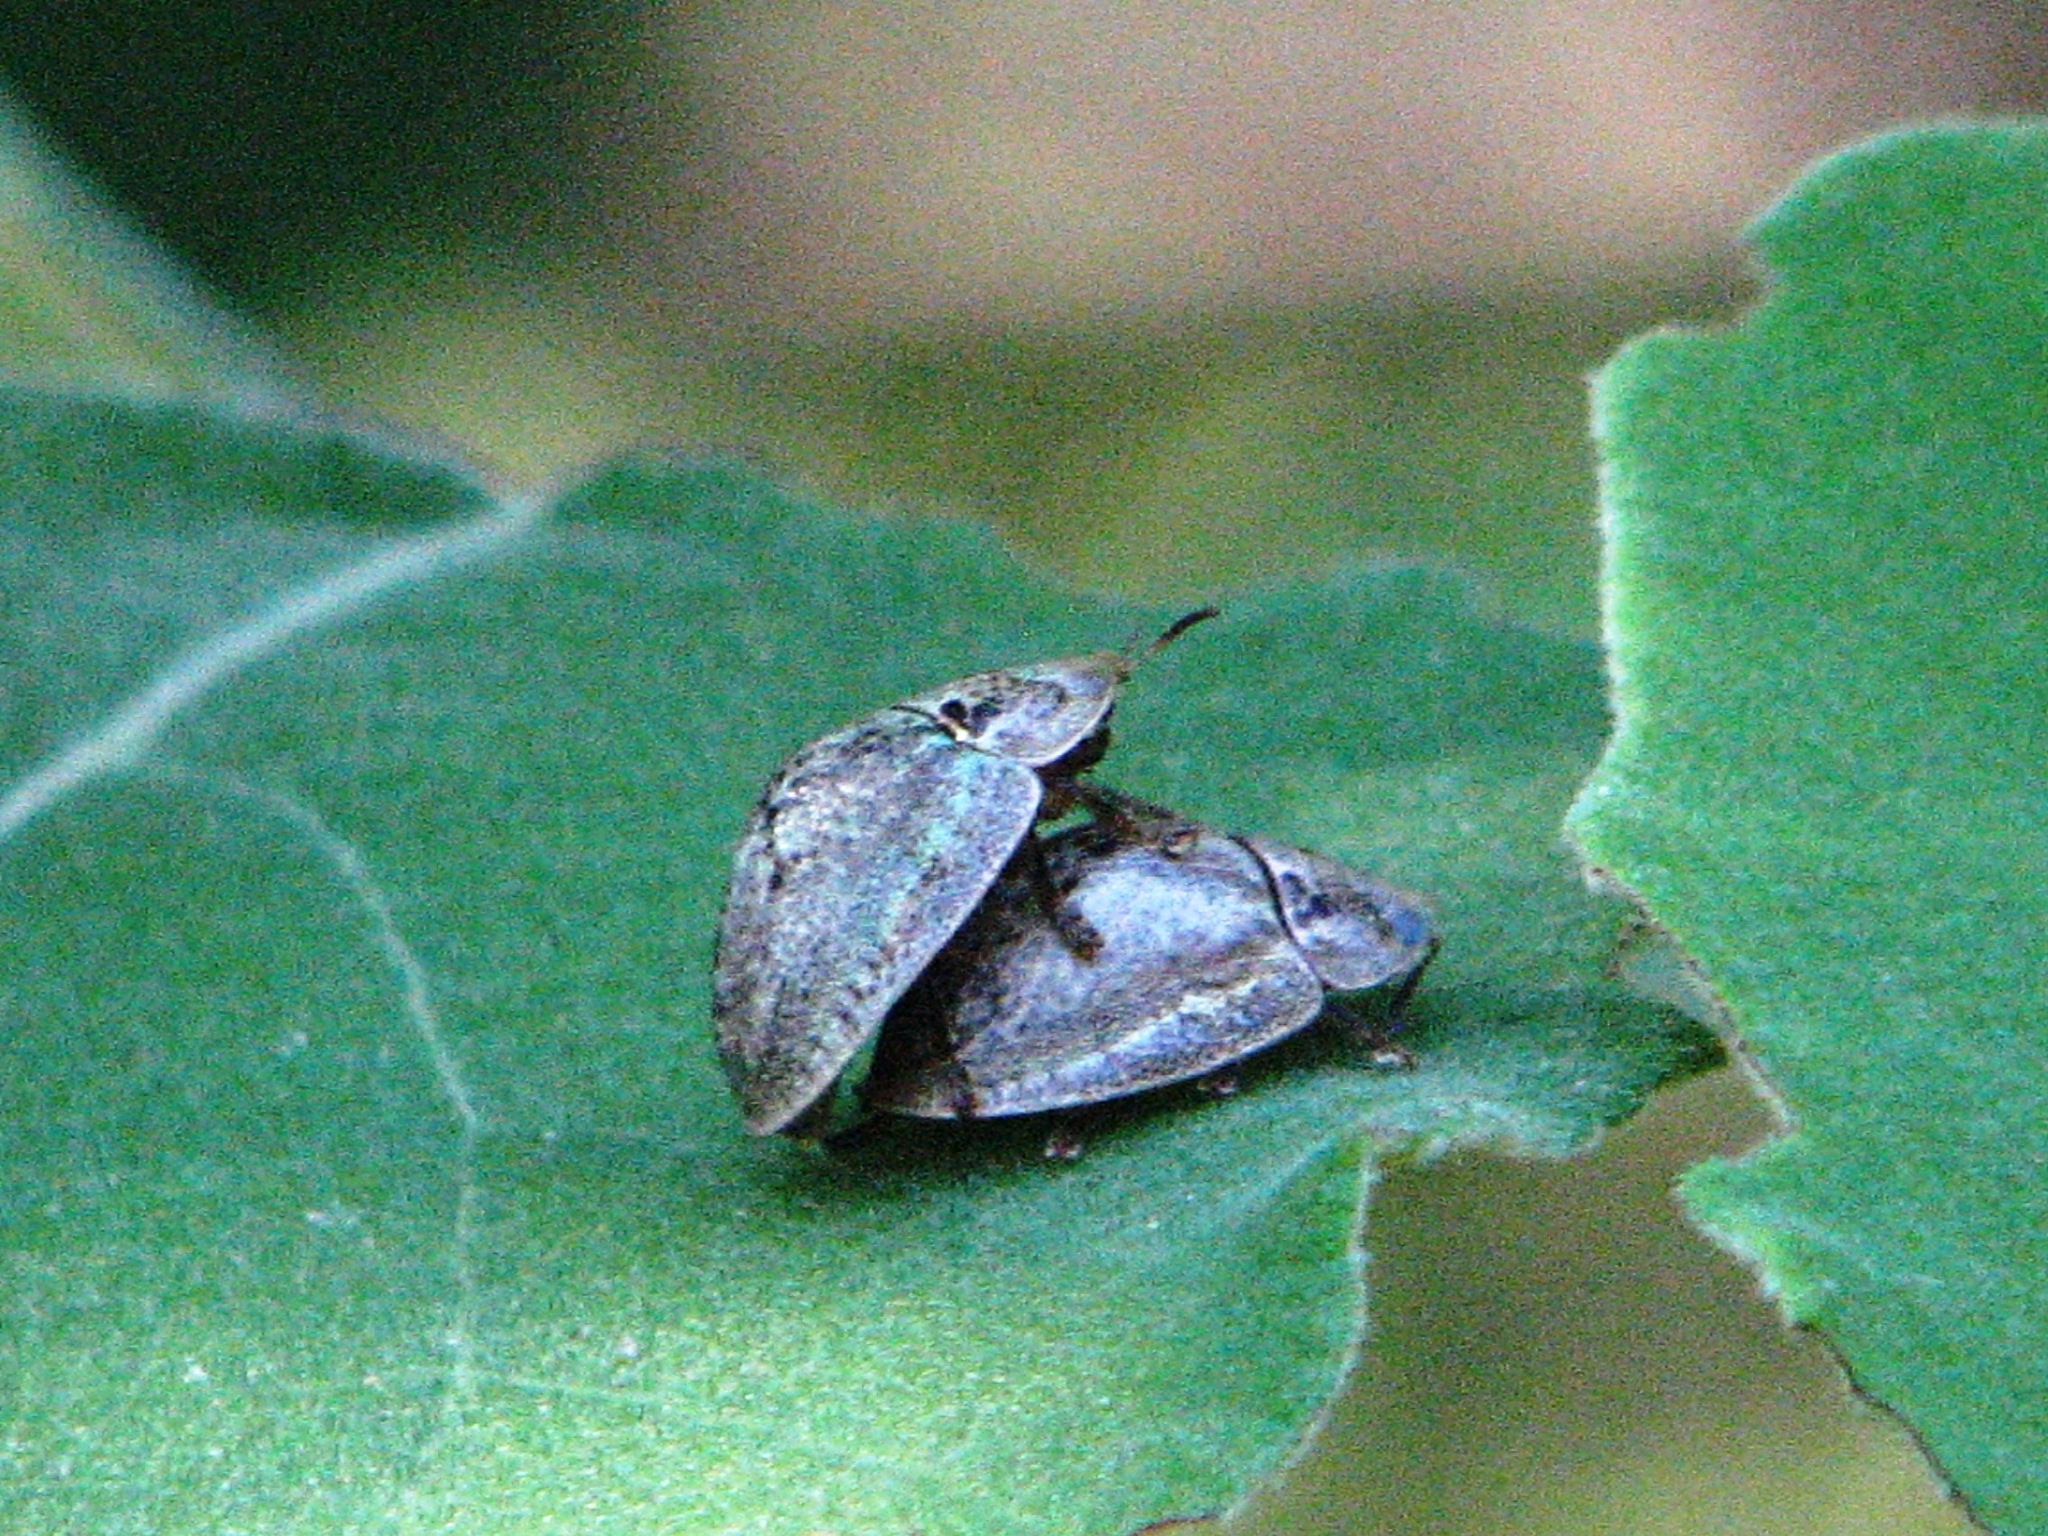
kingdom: Animalia
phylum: Arthropoda
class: Insecta
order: Coleoptera
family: Chrysomelidae
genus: Physonota
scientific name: Physonota alutacea
